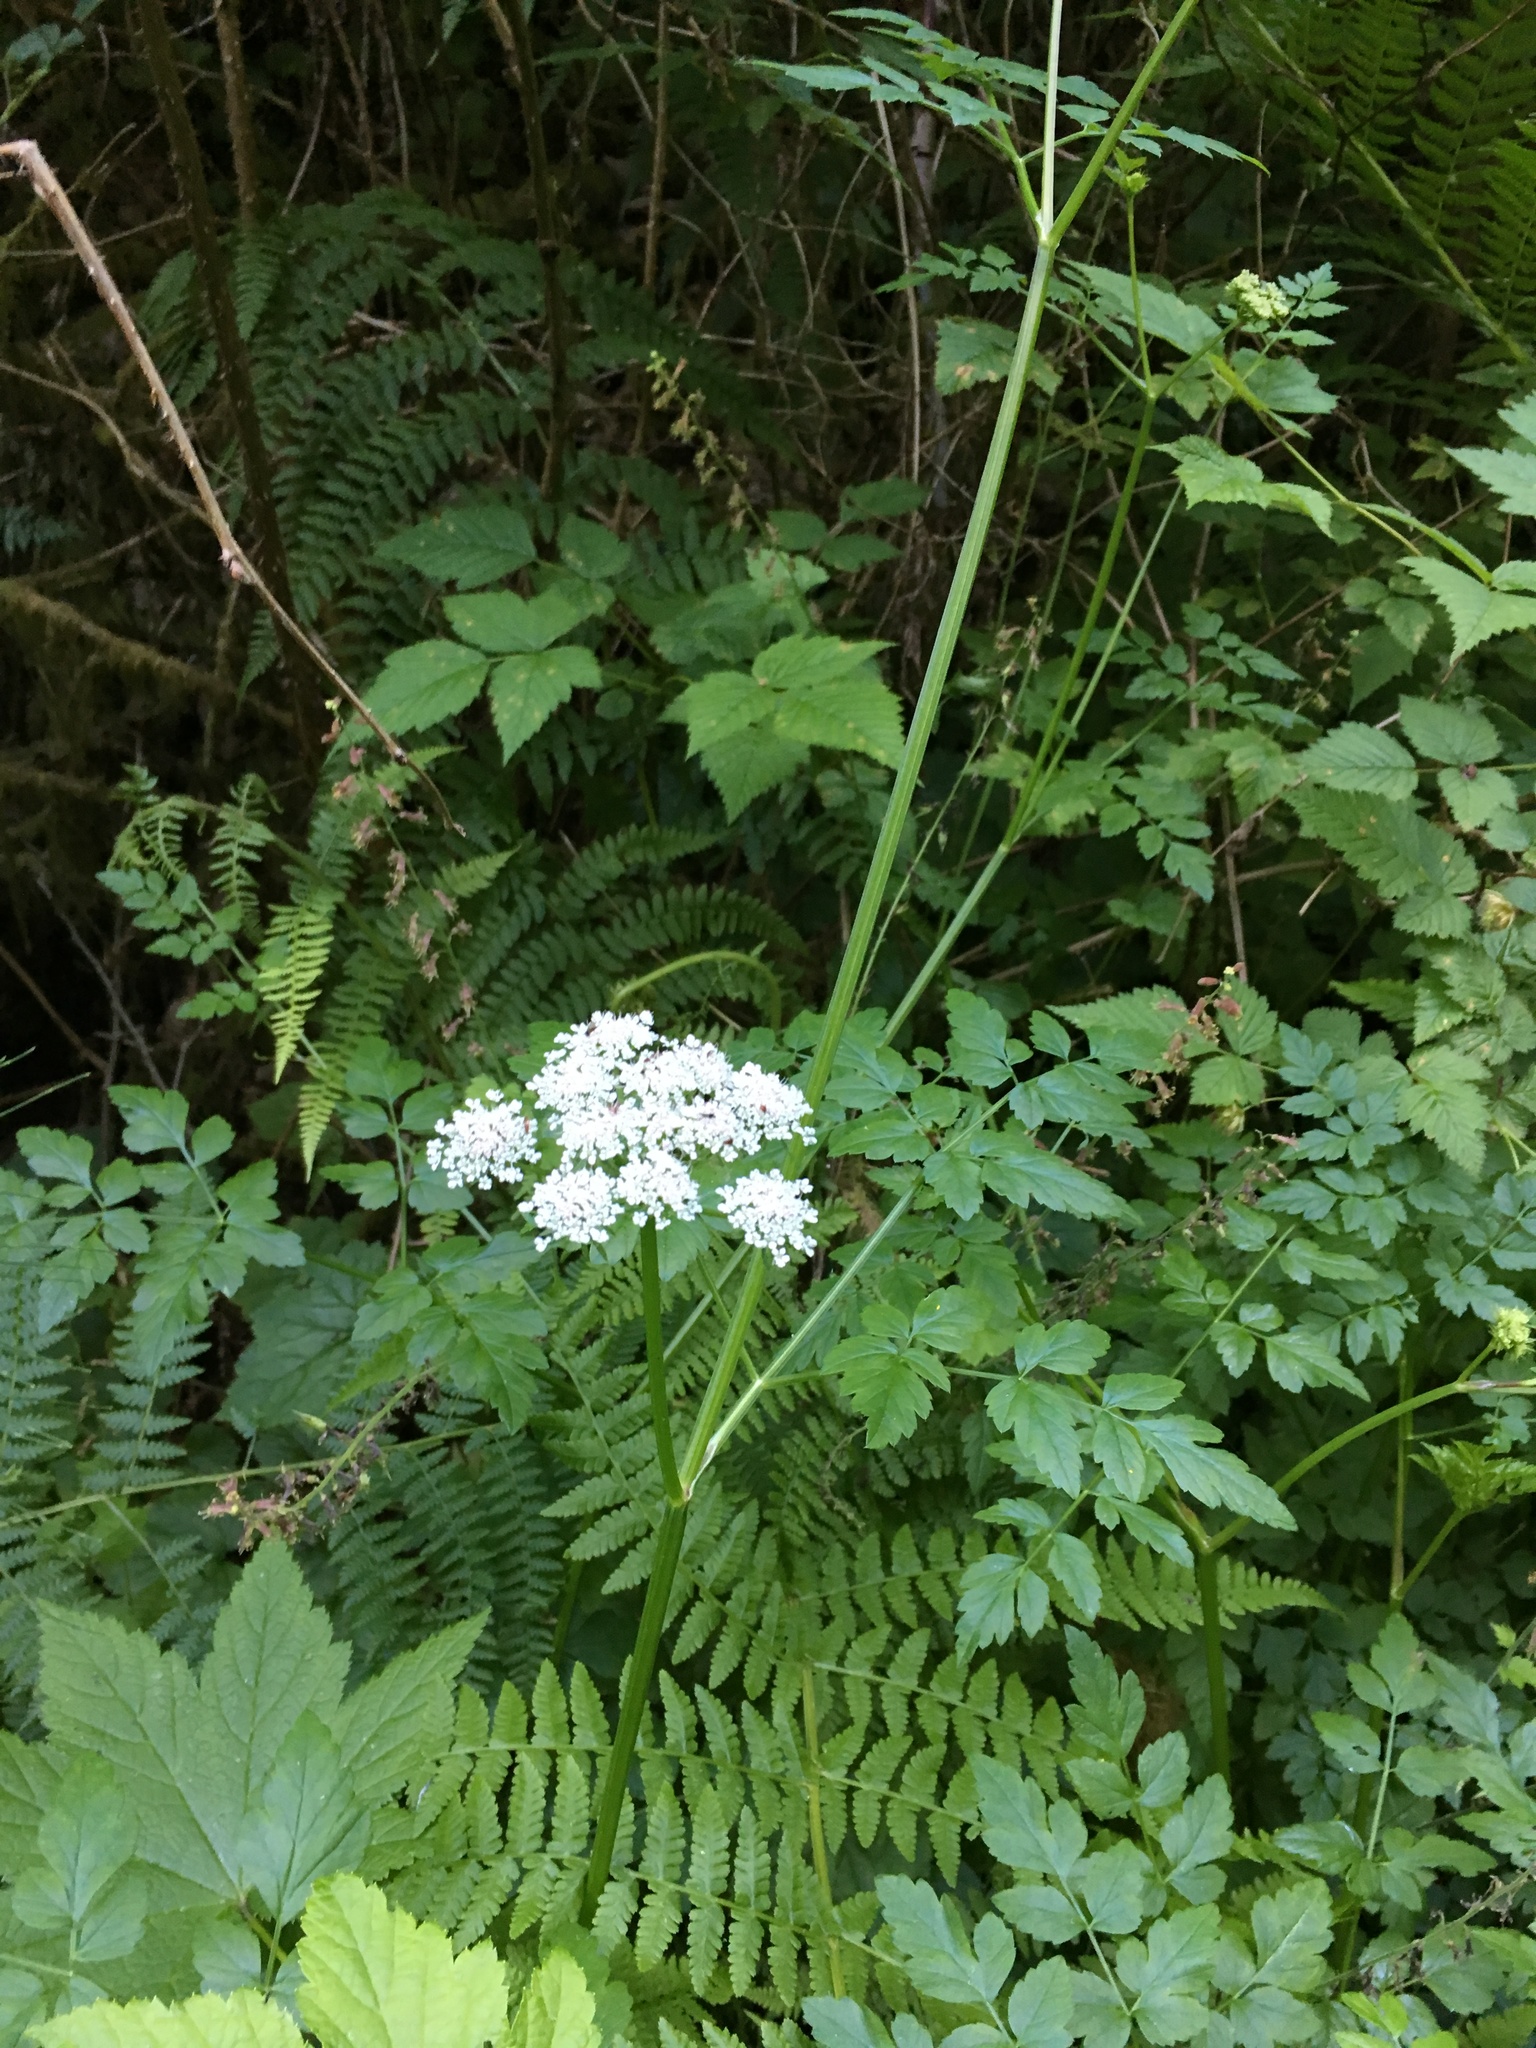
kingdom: Plantae
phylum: Tracheophyta
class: Magnoliopsida
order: Apiales
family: Apiaceae
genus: Oenanthe
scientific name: Oenanthe sarmentosa
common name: American water-parsley
